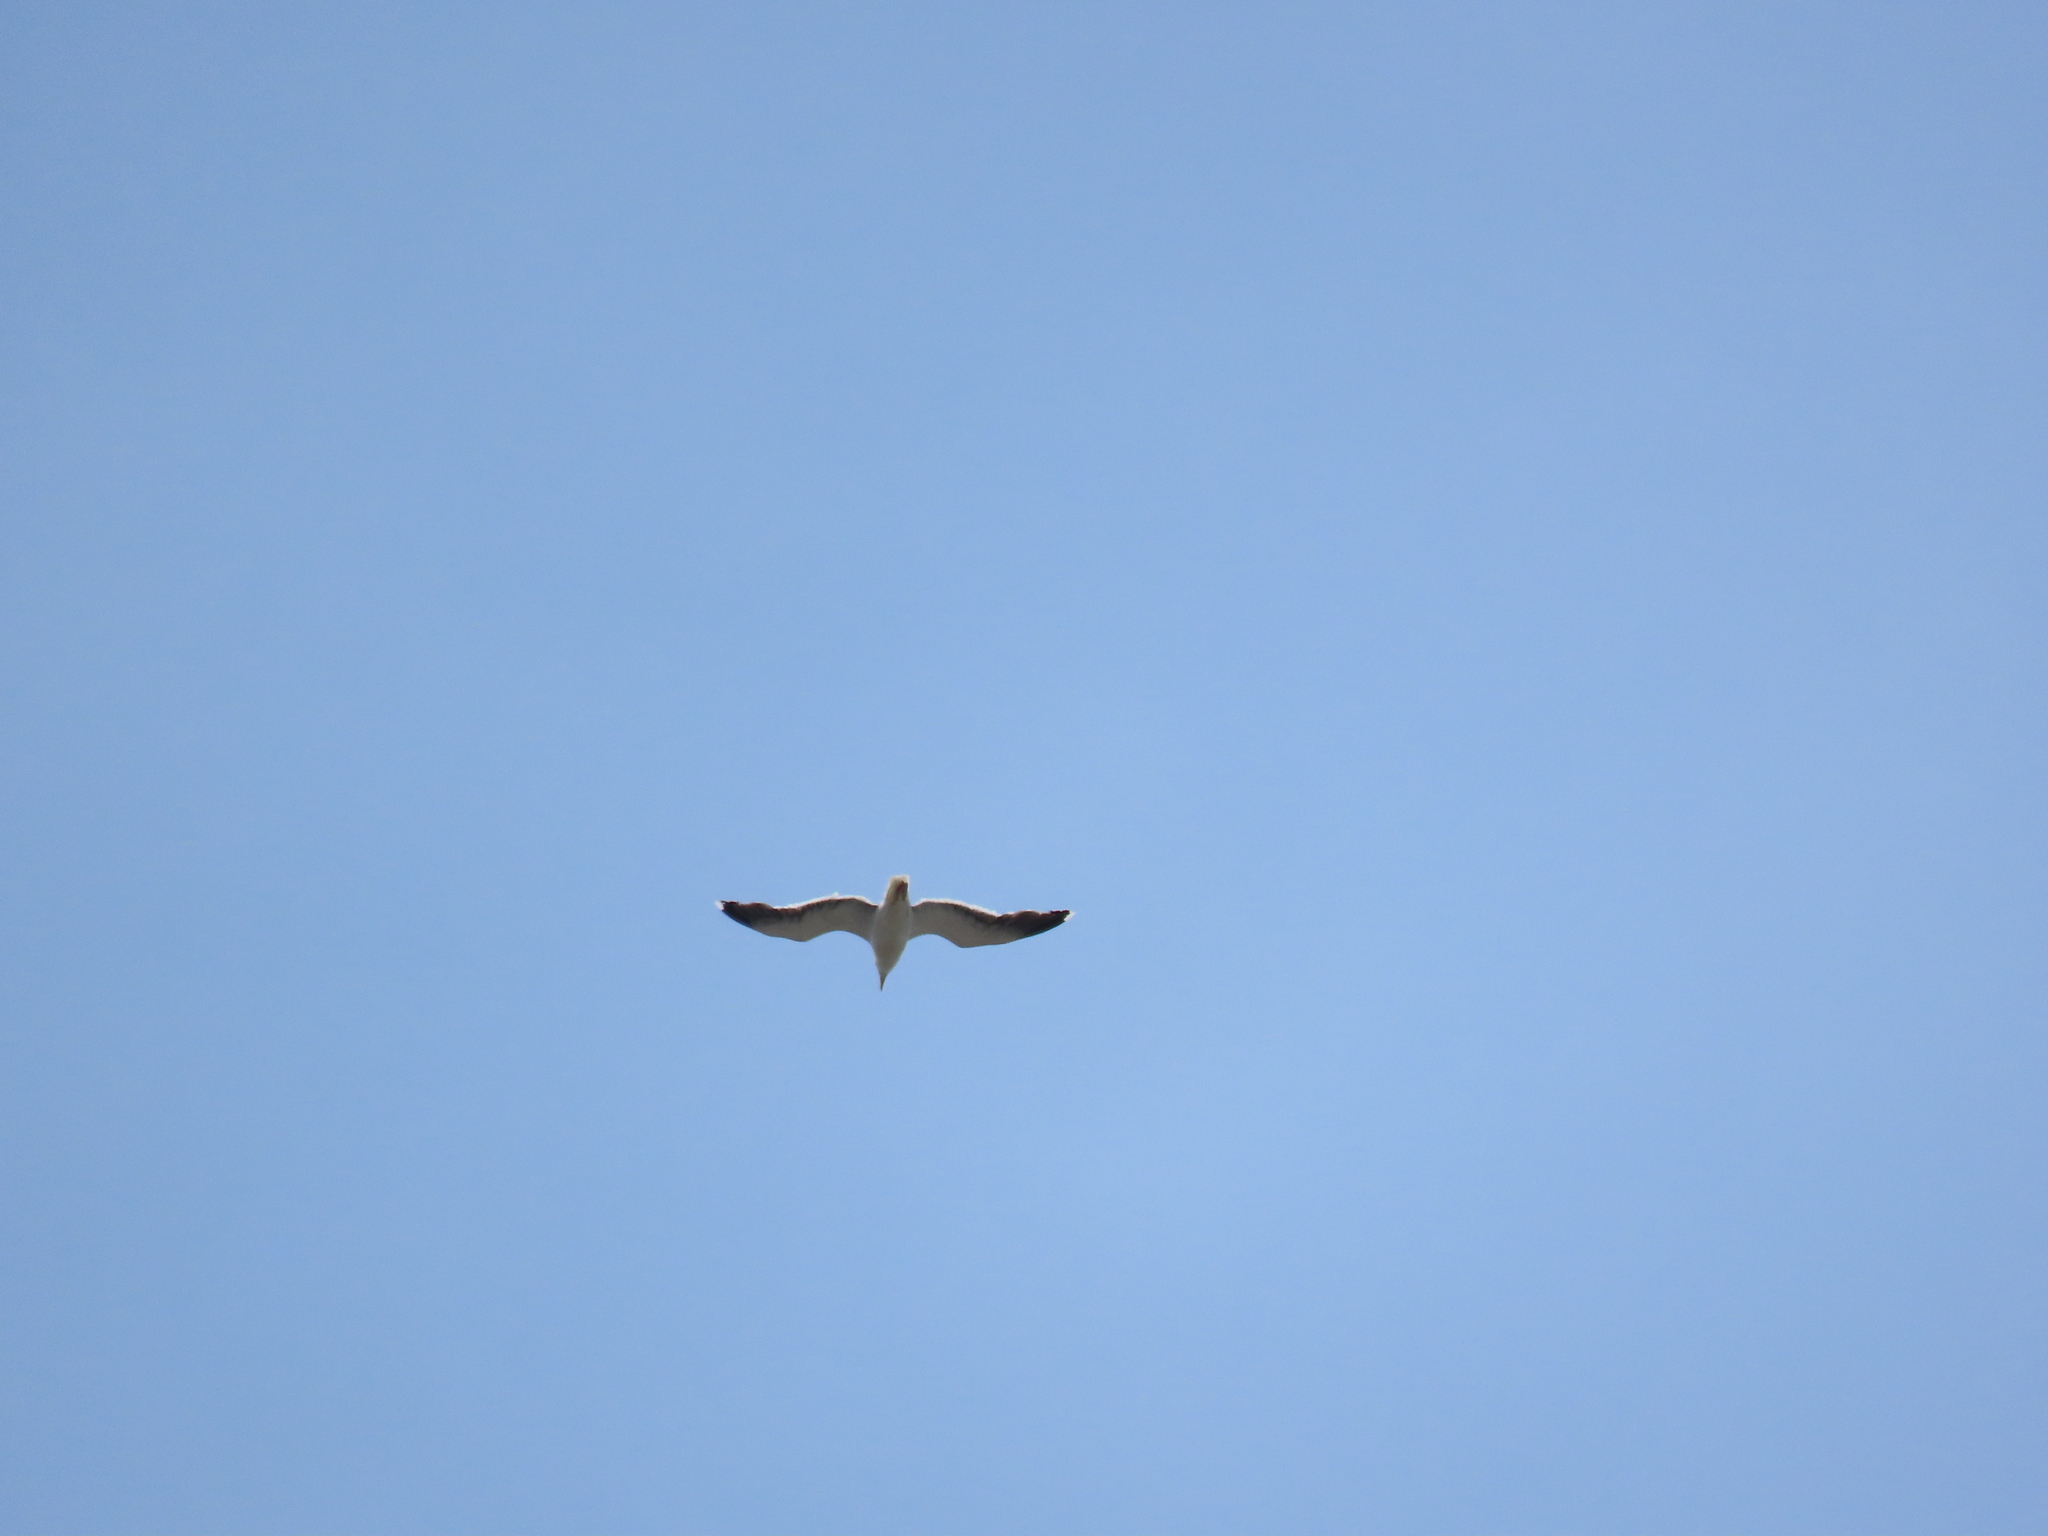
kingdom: Animalia
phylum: Chordata
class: Aves
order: Charadriiformes
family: Laridae
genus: Larus
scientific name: Larus marinus
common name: Great black-backed gull
